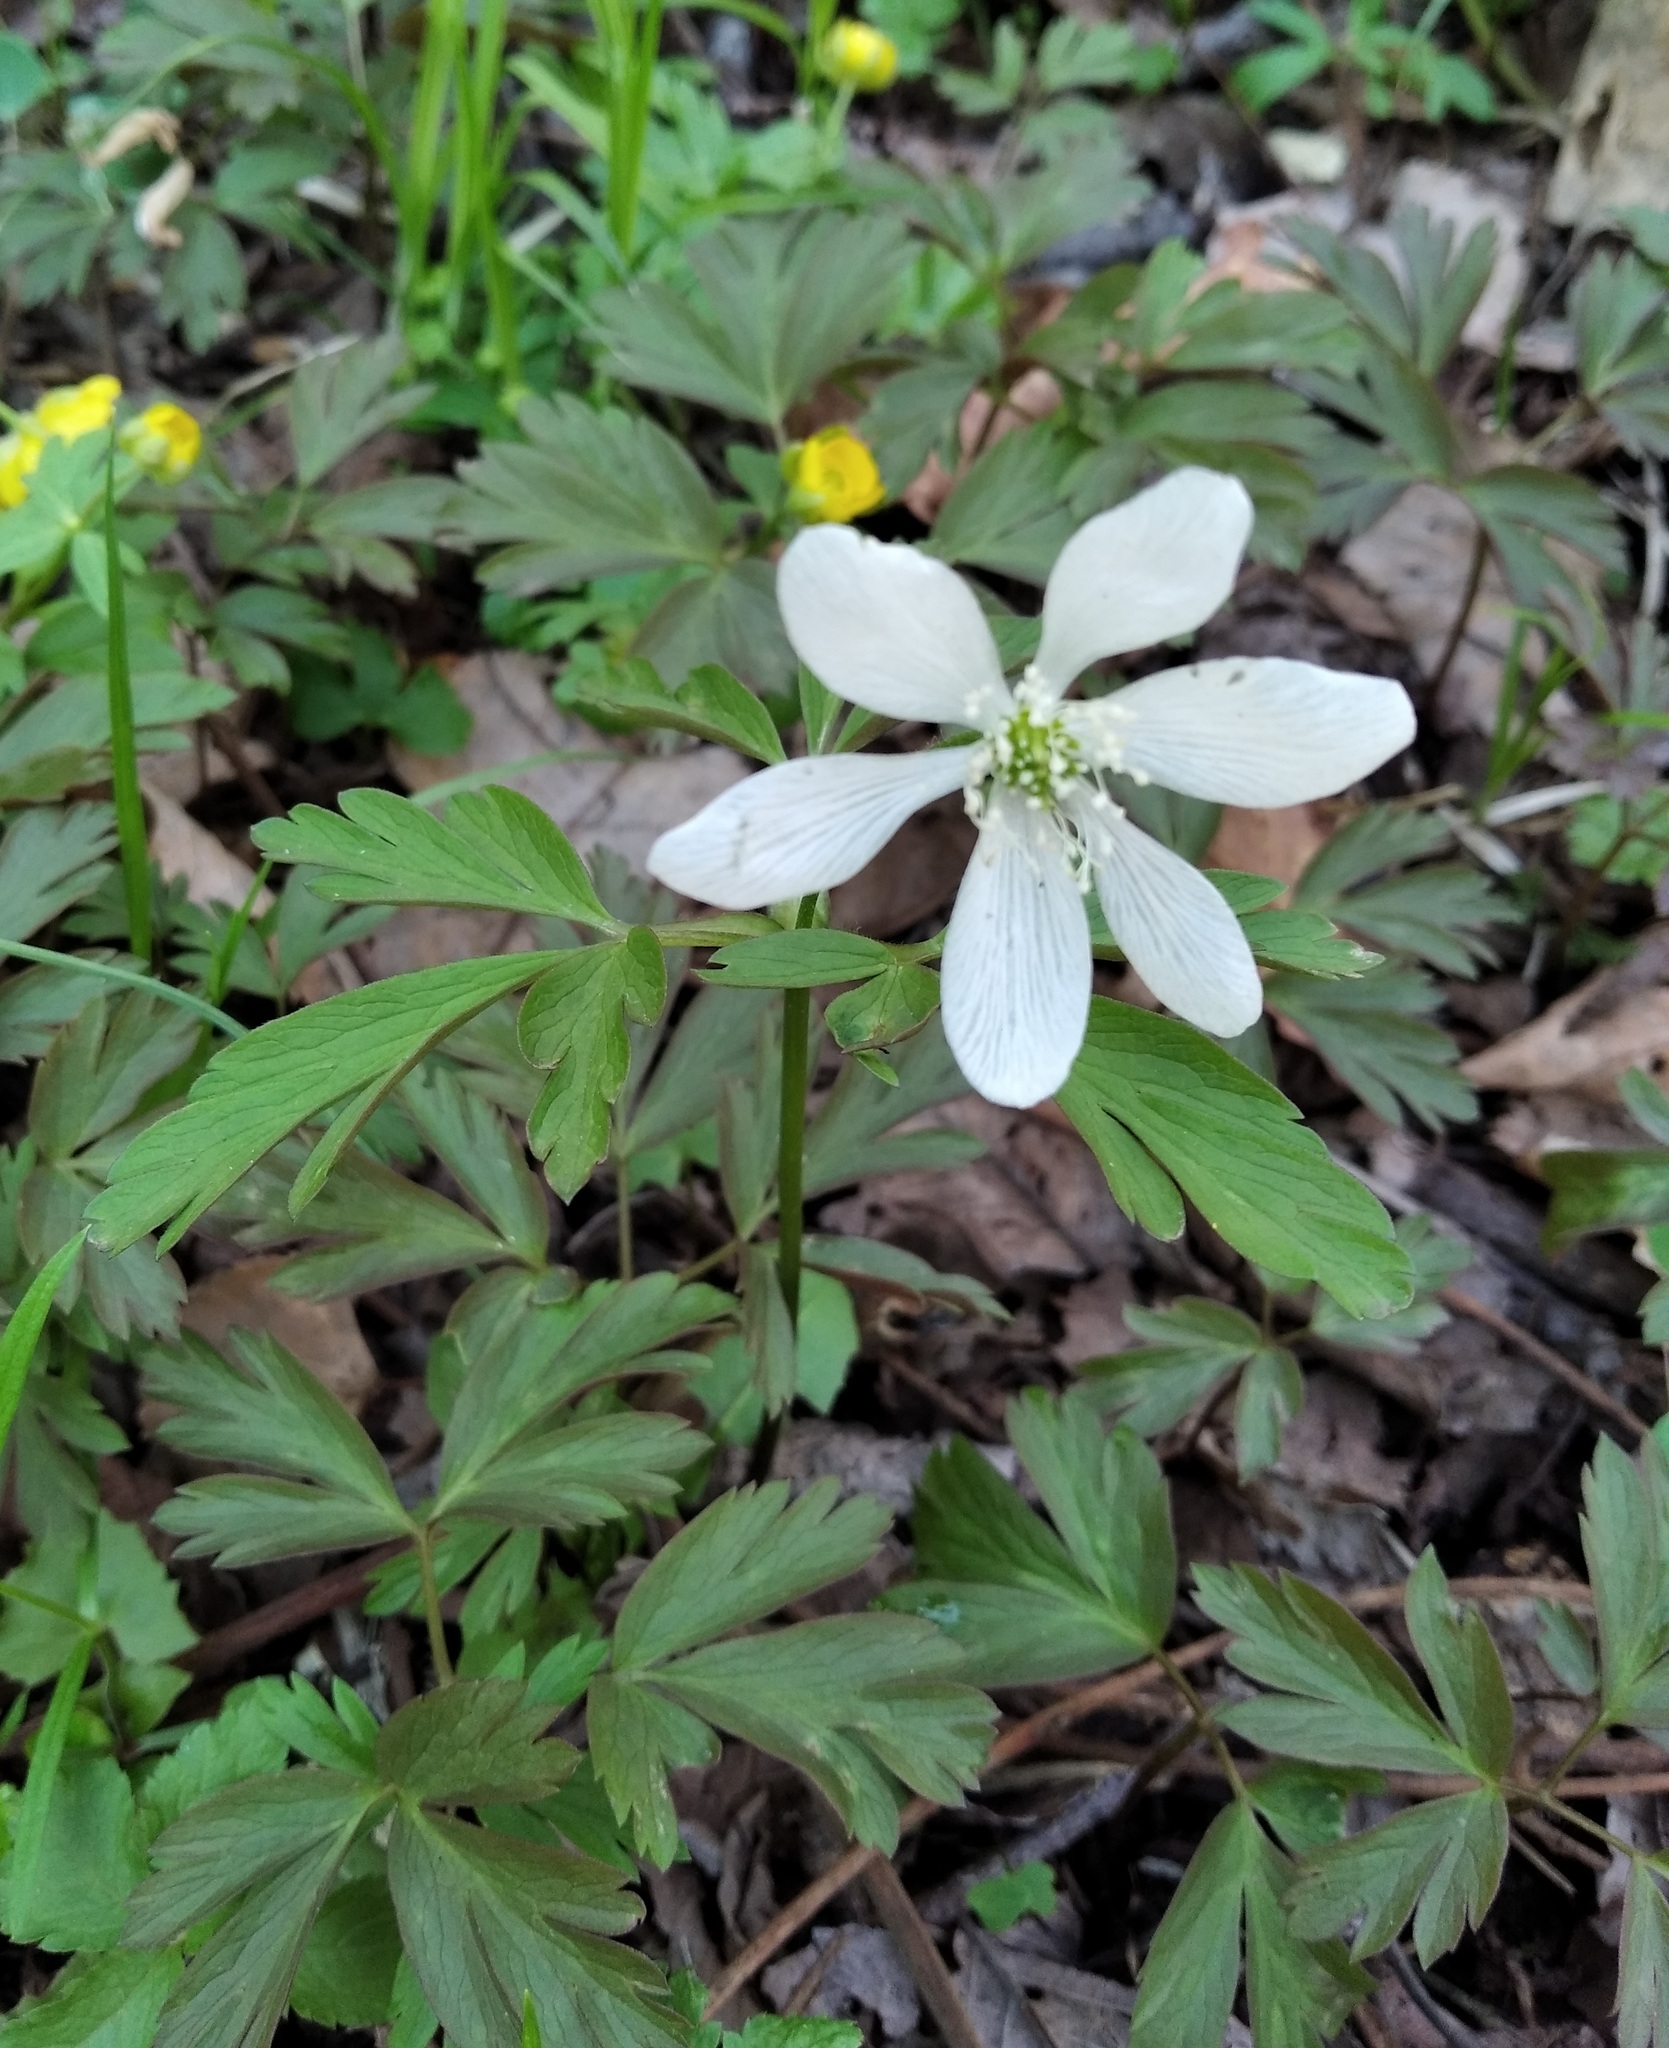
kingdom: Plantae
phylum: Tracheophyta
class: Magnoliopsida
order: Ranunculales
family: Ranunculaceae
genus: Anemone
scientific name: Anemone amurensis
